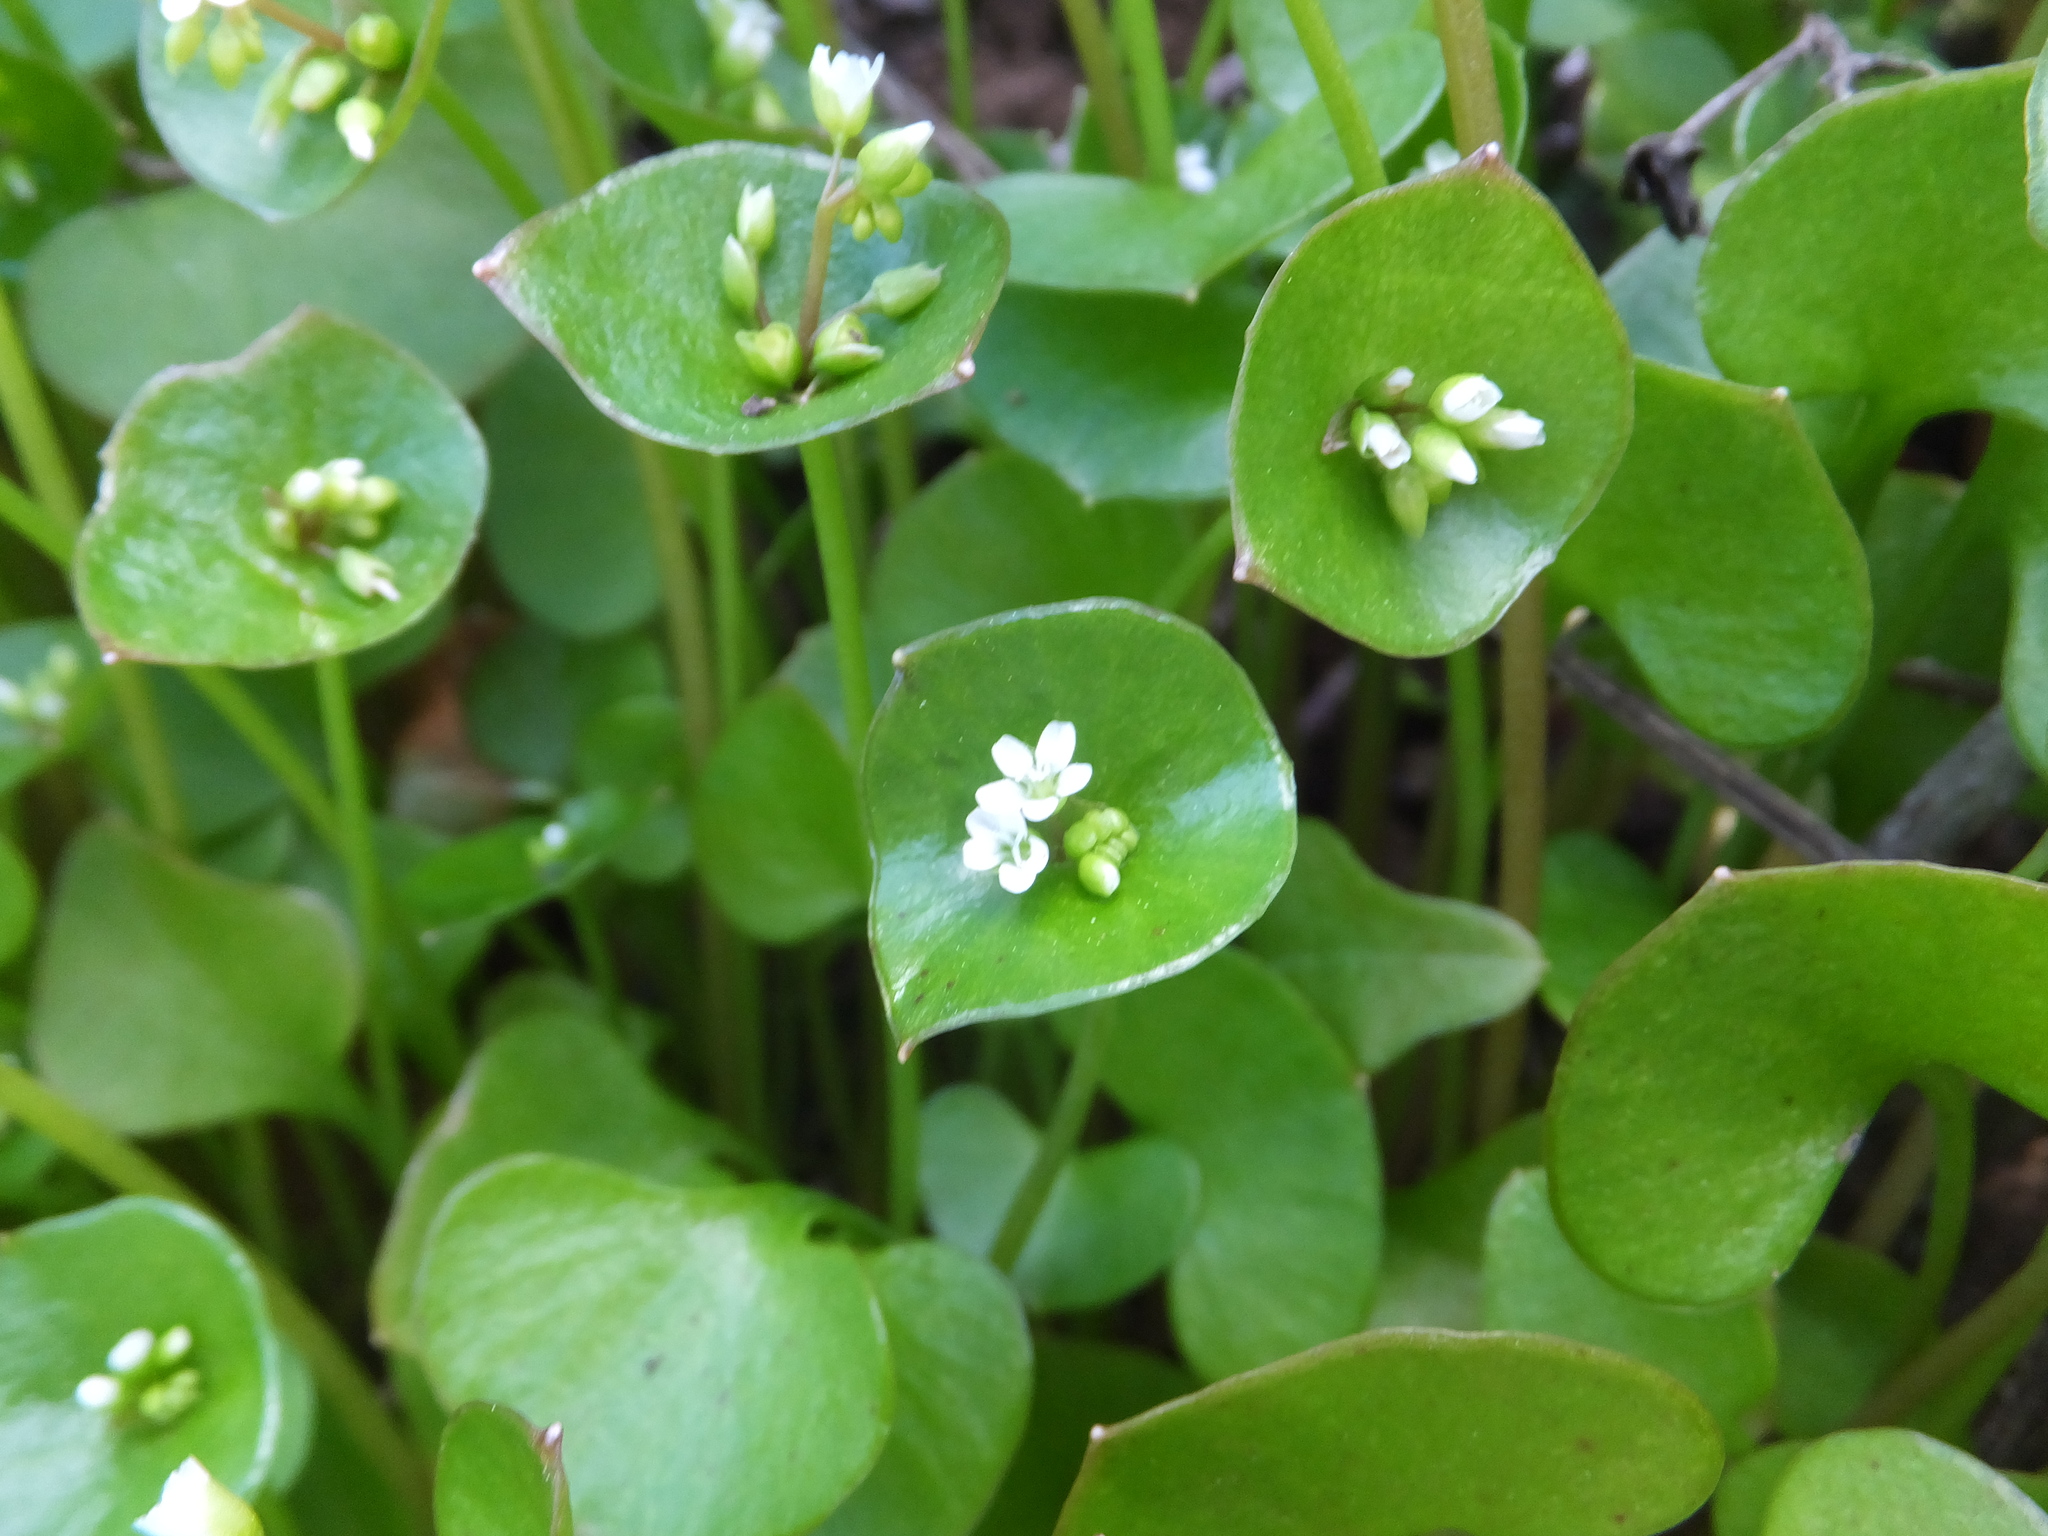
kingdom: Plantae
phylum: Tracheophyta
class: Magnoliopsida
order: Caryophyllales
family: Montiaceae
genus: Claytonia
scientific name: Claytonia perfoliata
